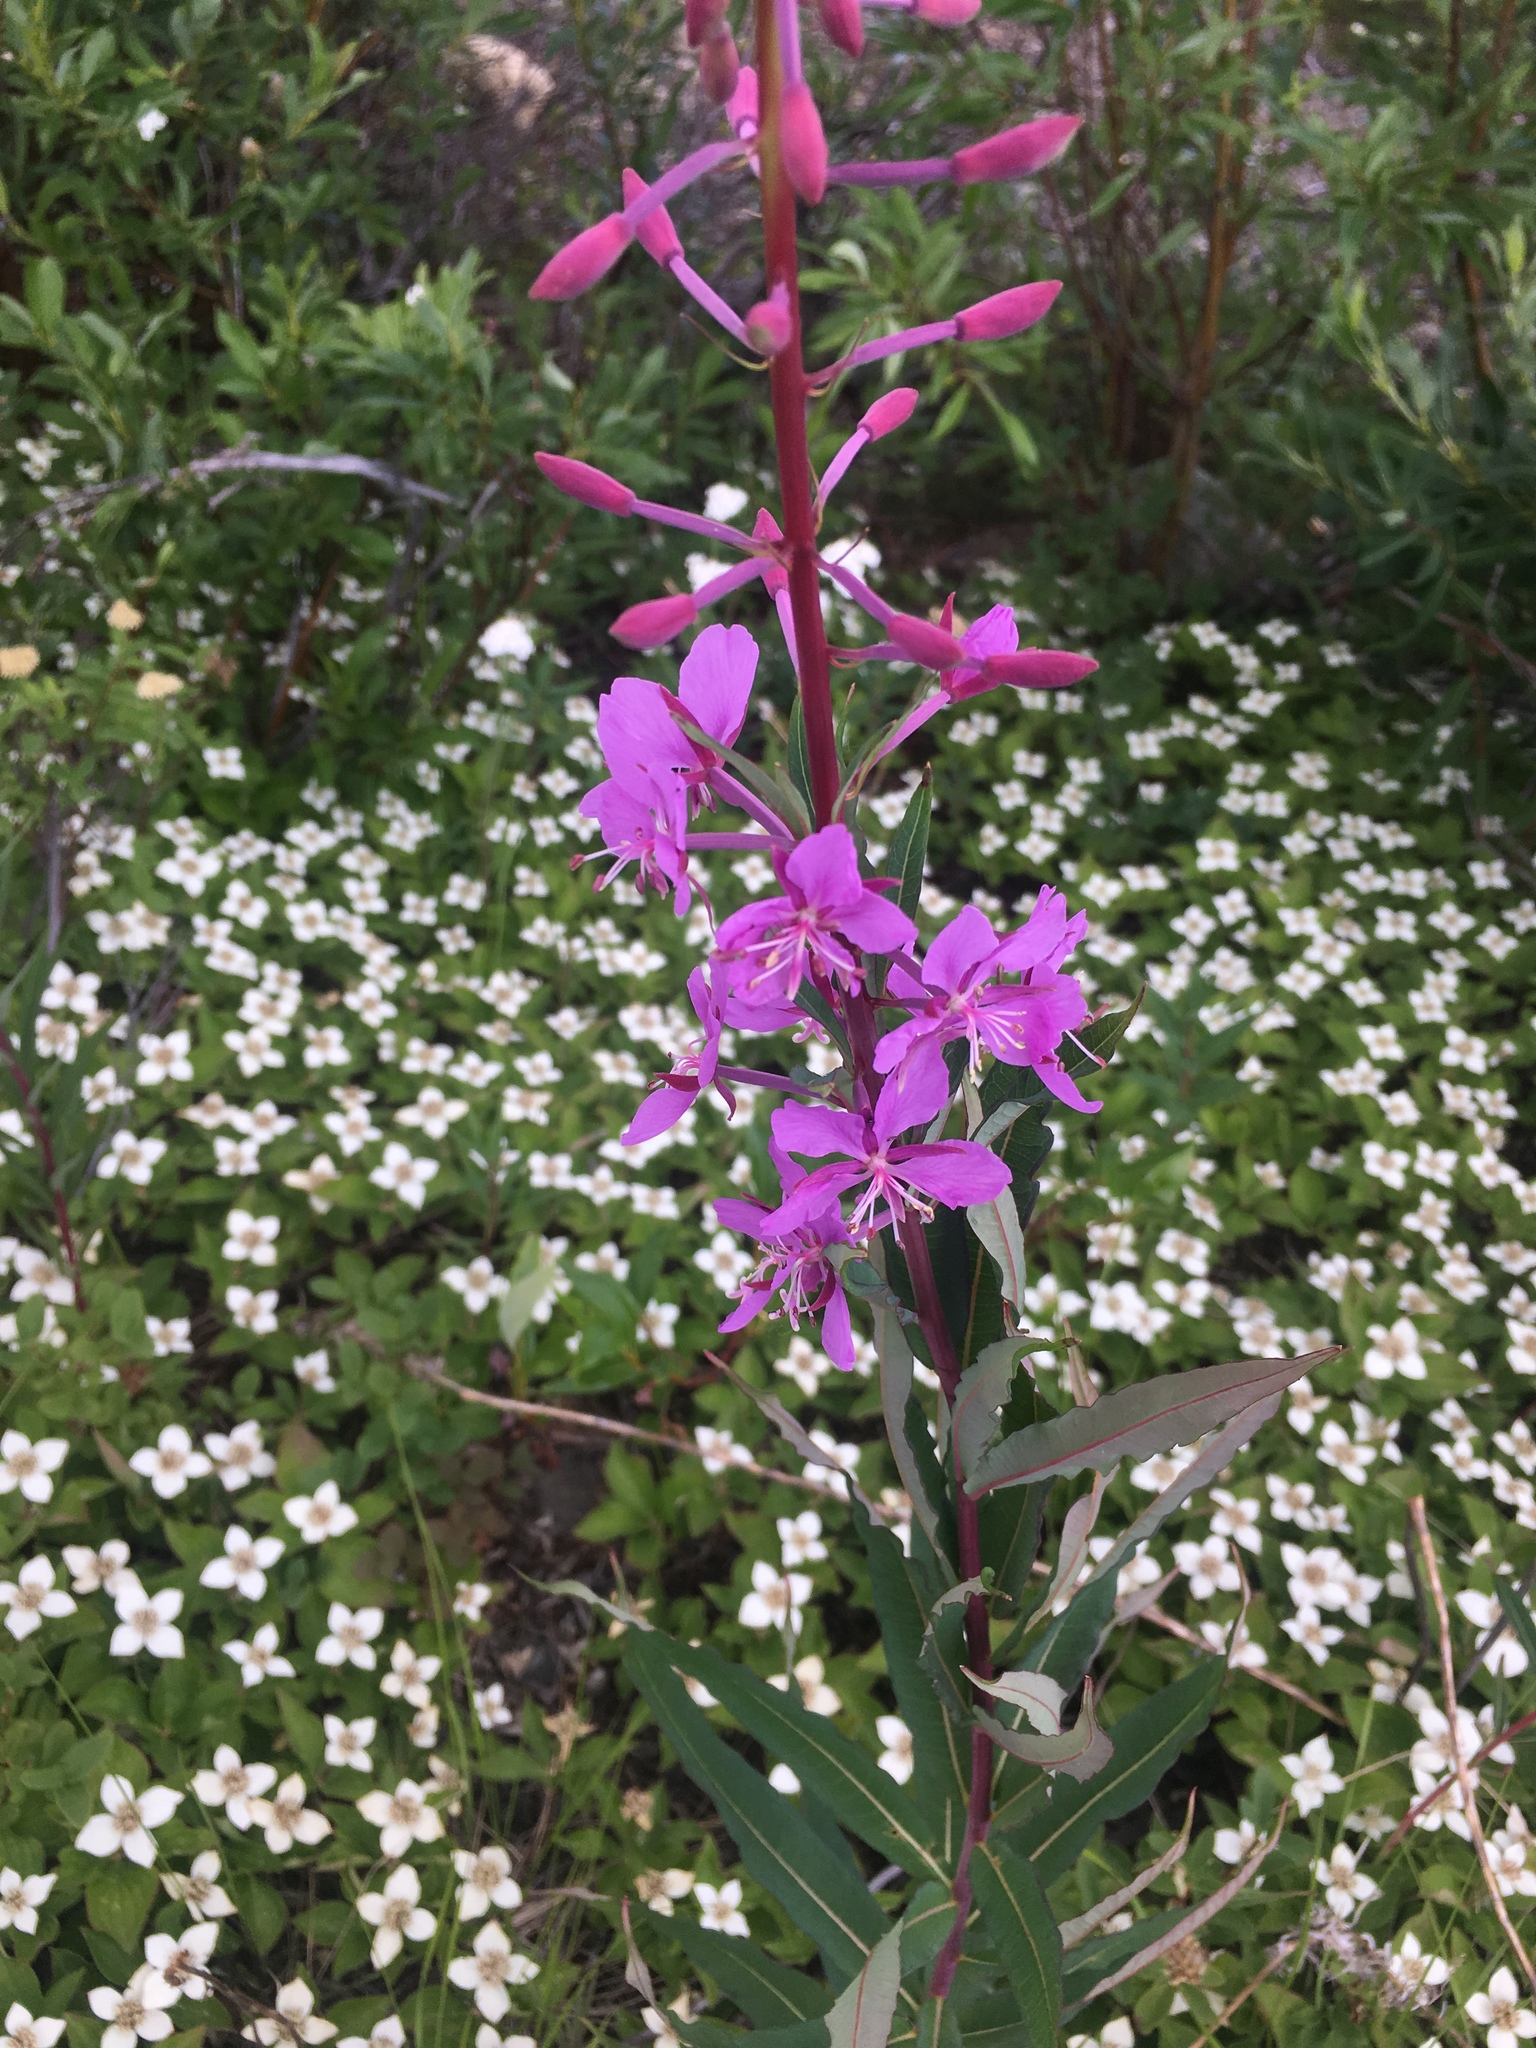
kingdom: Plantae
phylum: Tracheophyta
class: Magnoliopsida
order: Myrtales
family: Onagraceae
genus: Chamaenerion
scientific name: Chamaenerion angustifolium
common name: Fireweed
